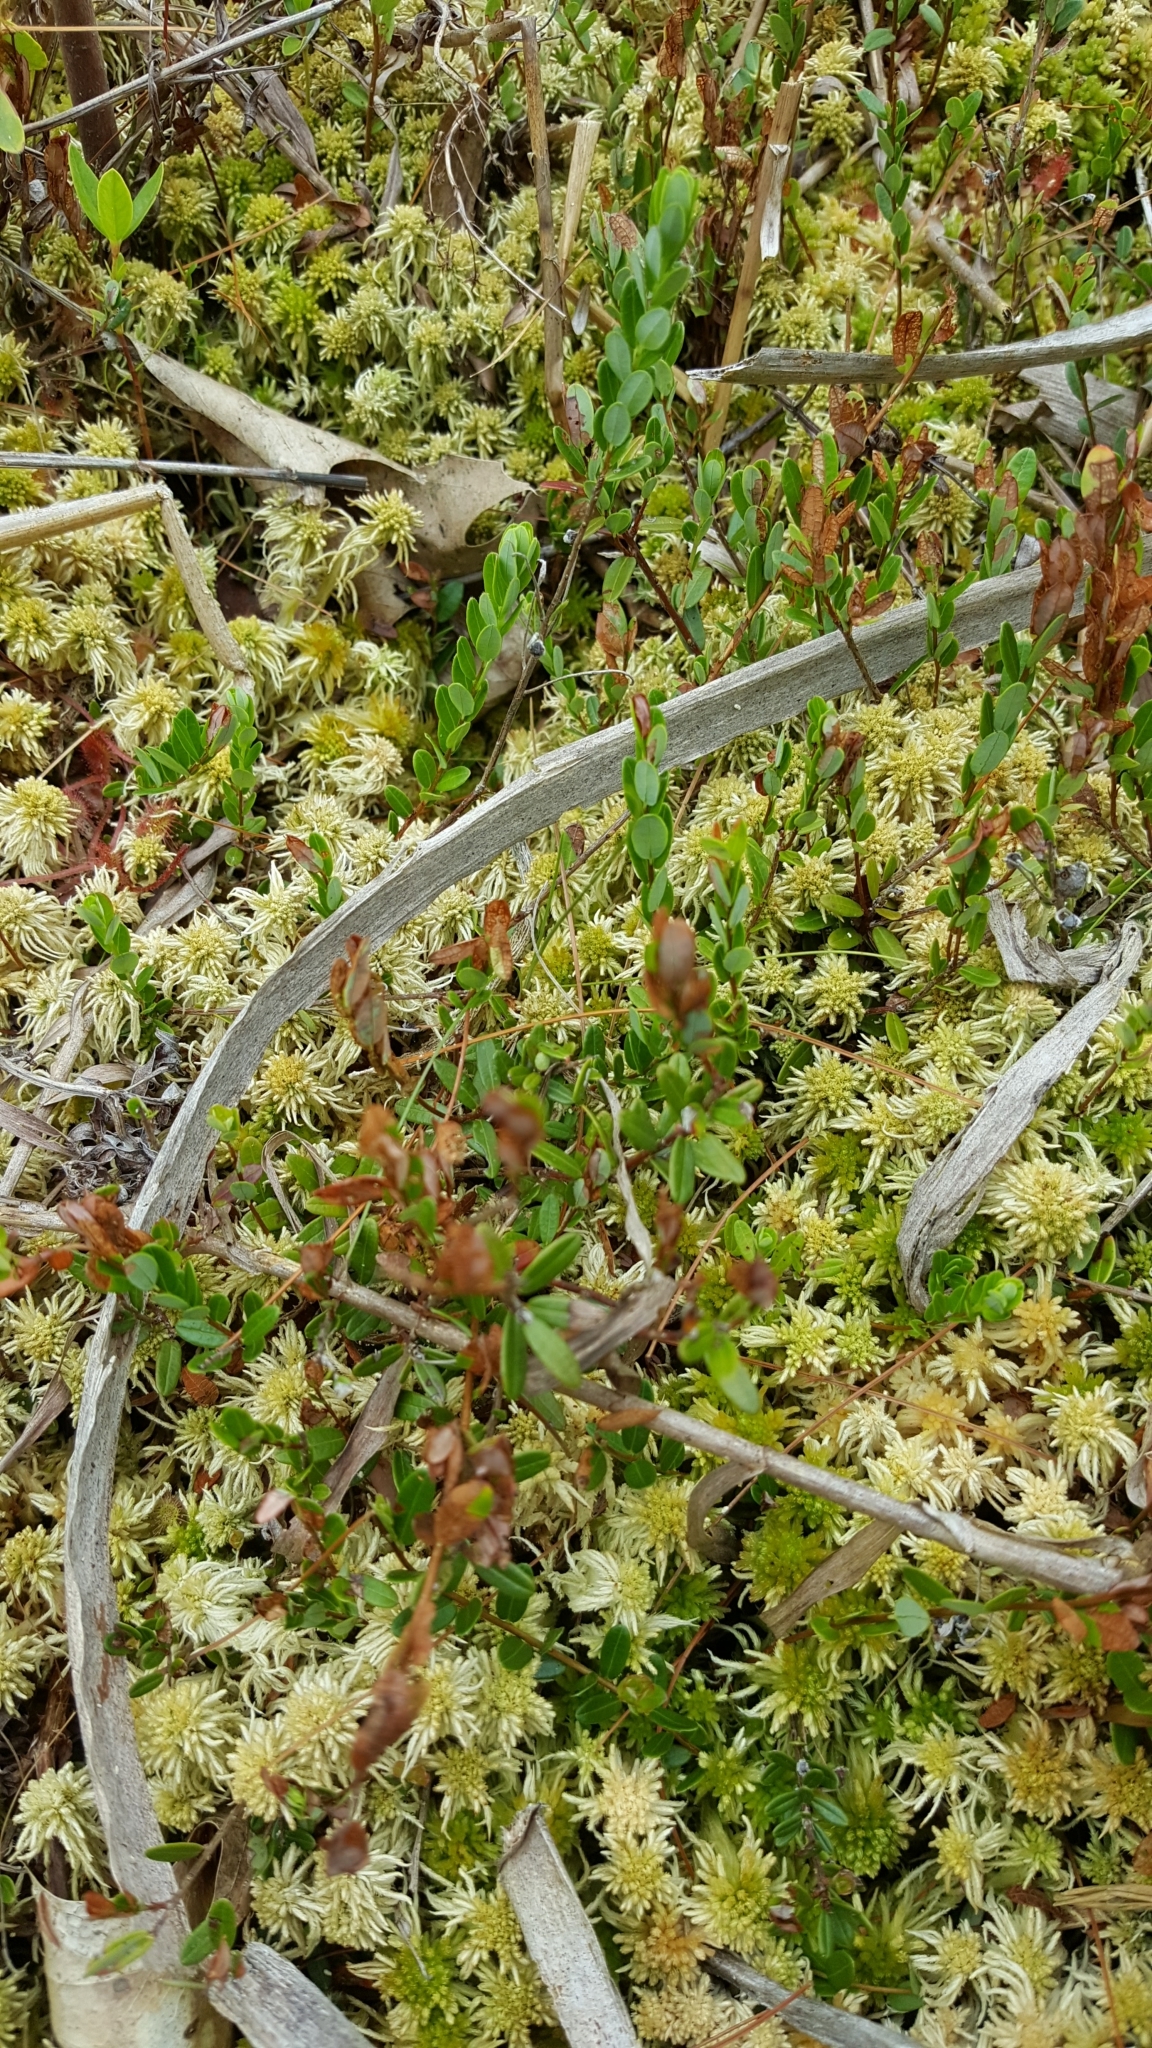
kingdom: Plantae
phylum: Tracheophyta
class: Magnoliopsida
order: Ericales
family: Ericaceae
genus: Vaccinium
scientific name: Vaccinium macrocarpon
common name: American cranberry
